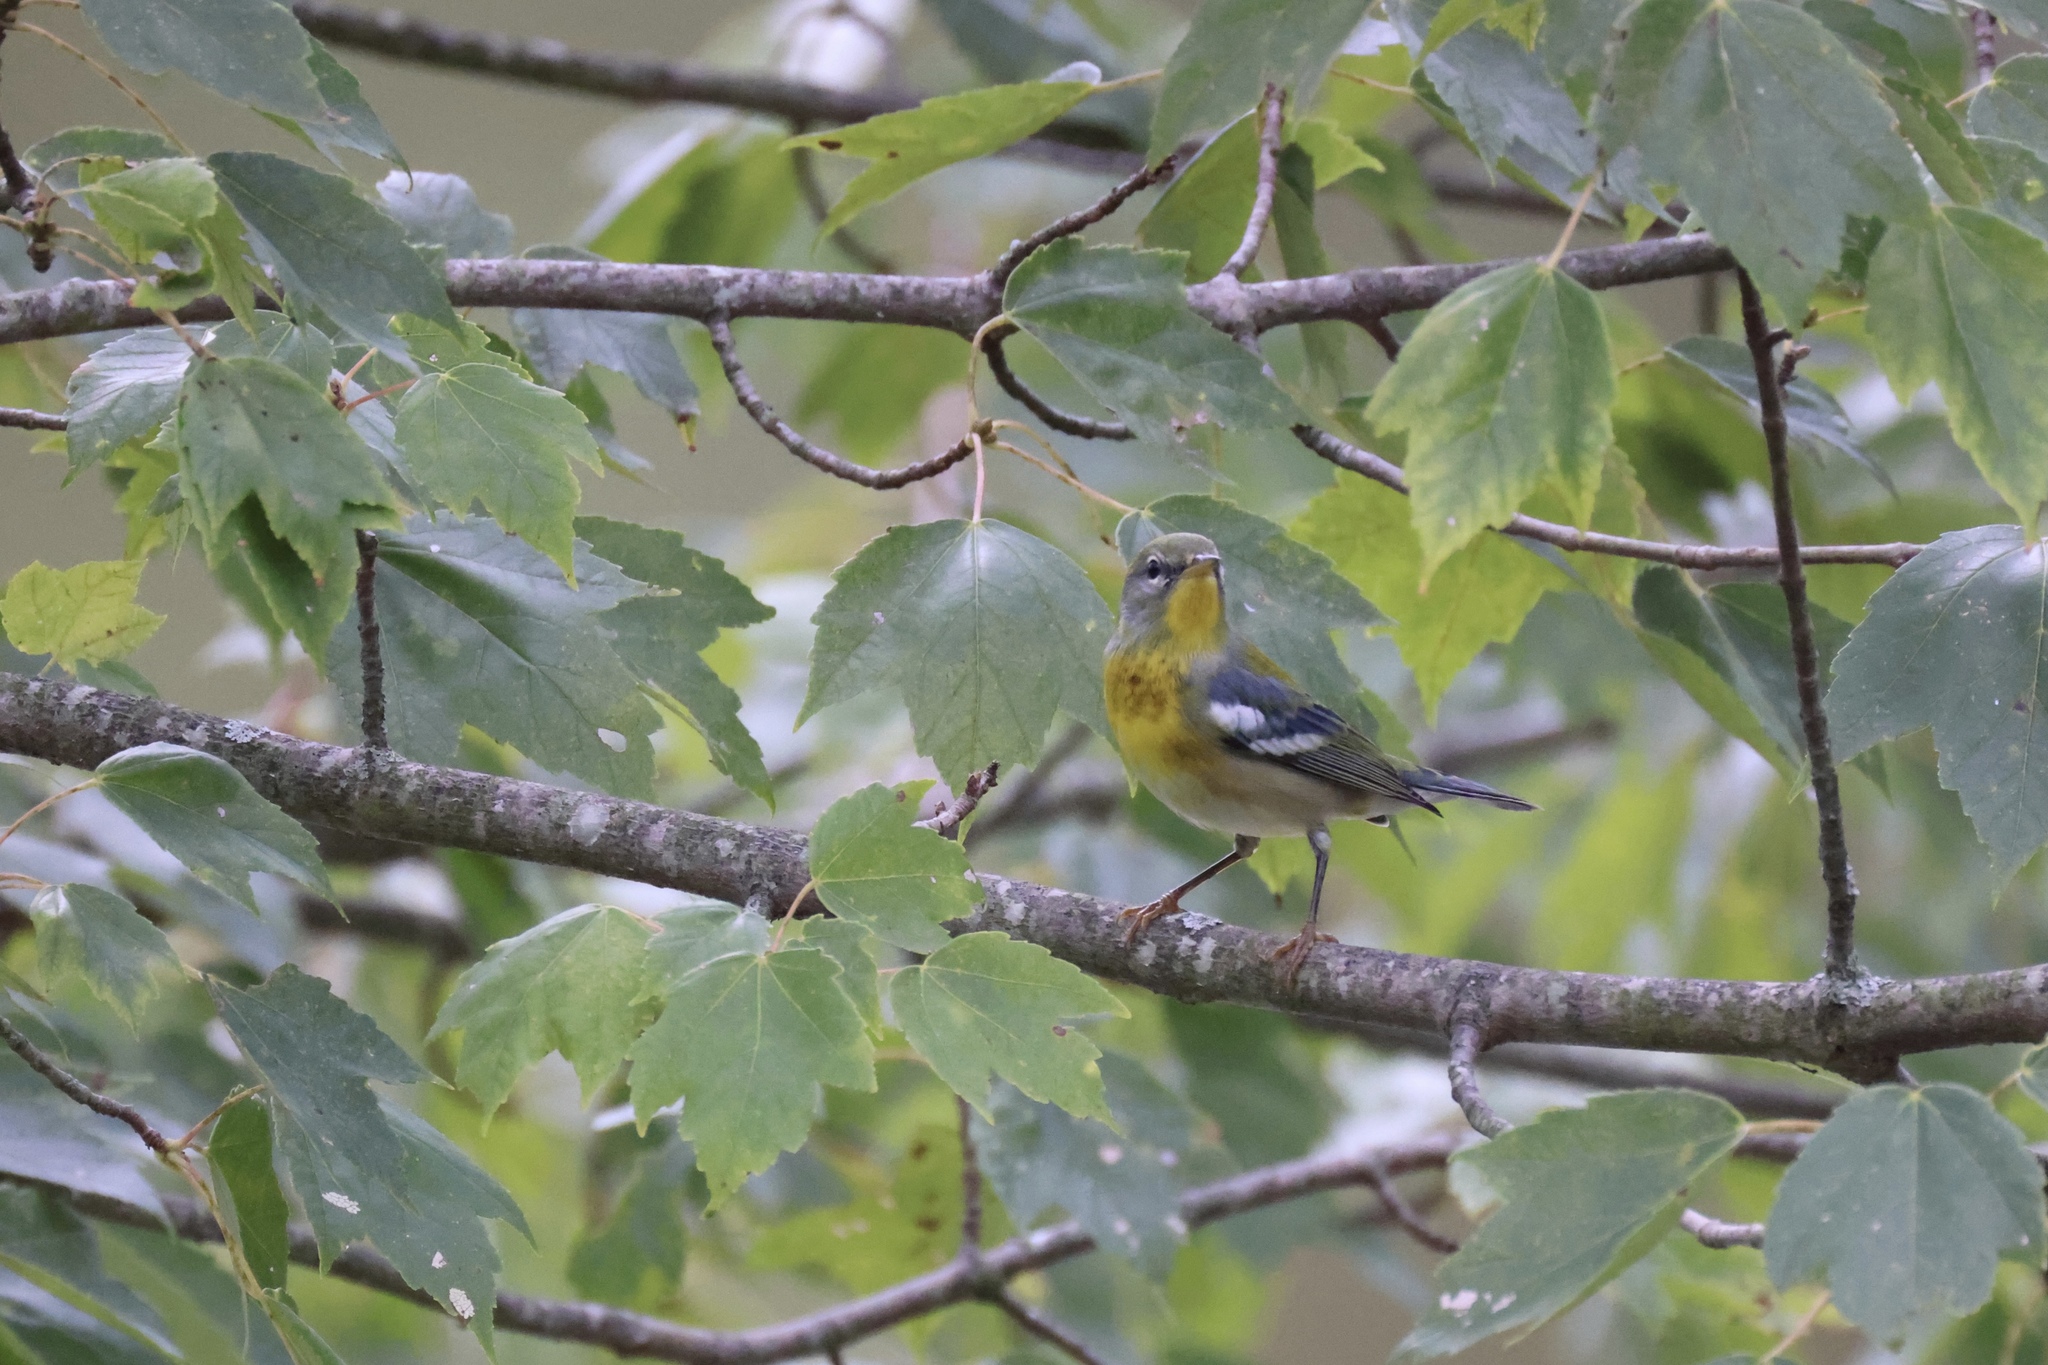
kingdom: Animalia
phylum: Chordata
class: Aves
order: Passeriformes
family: Parulidae
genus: Setophaga
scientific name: Setophaga americana
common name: Northern parula
